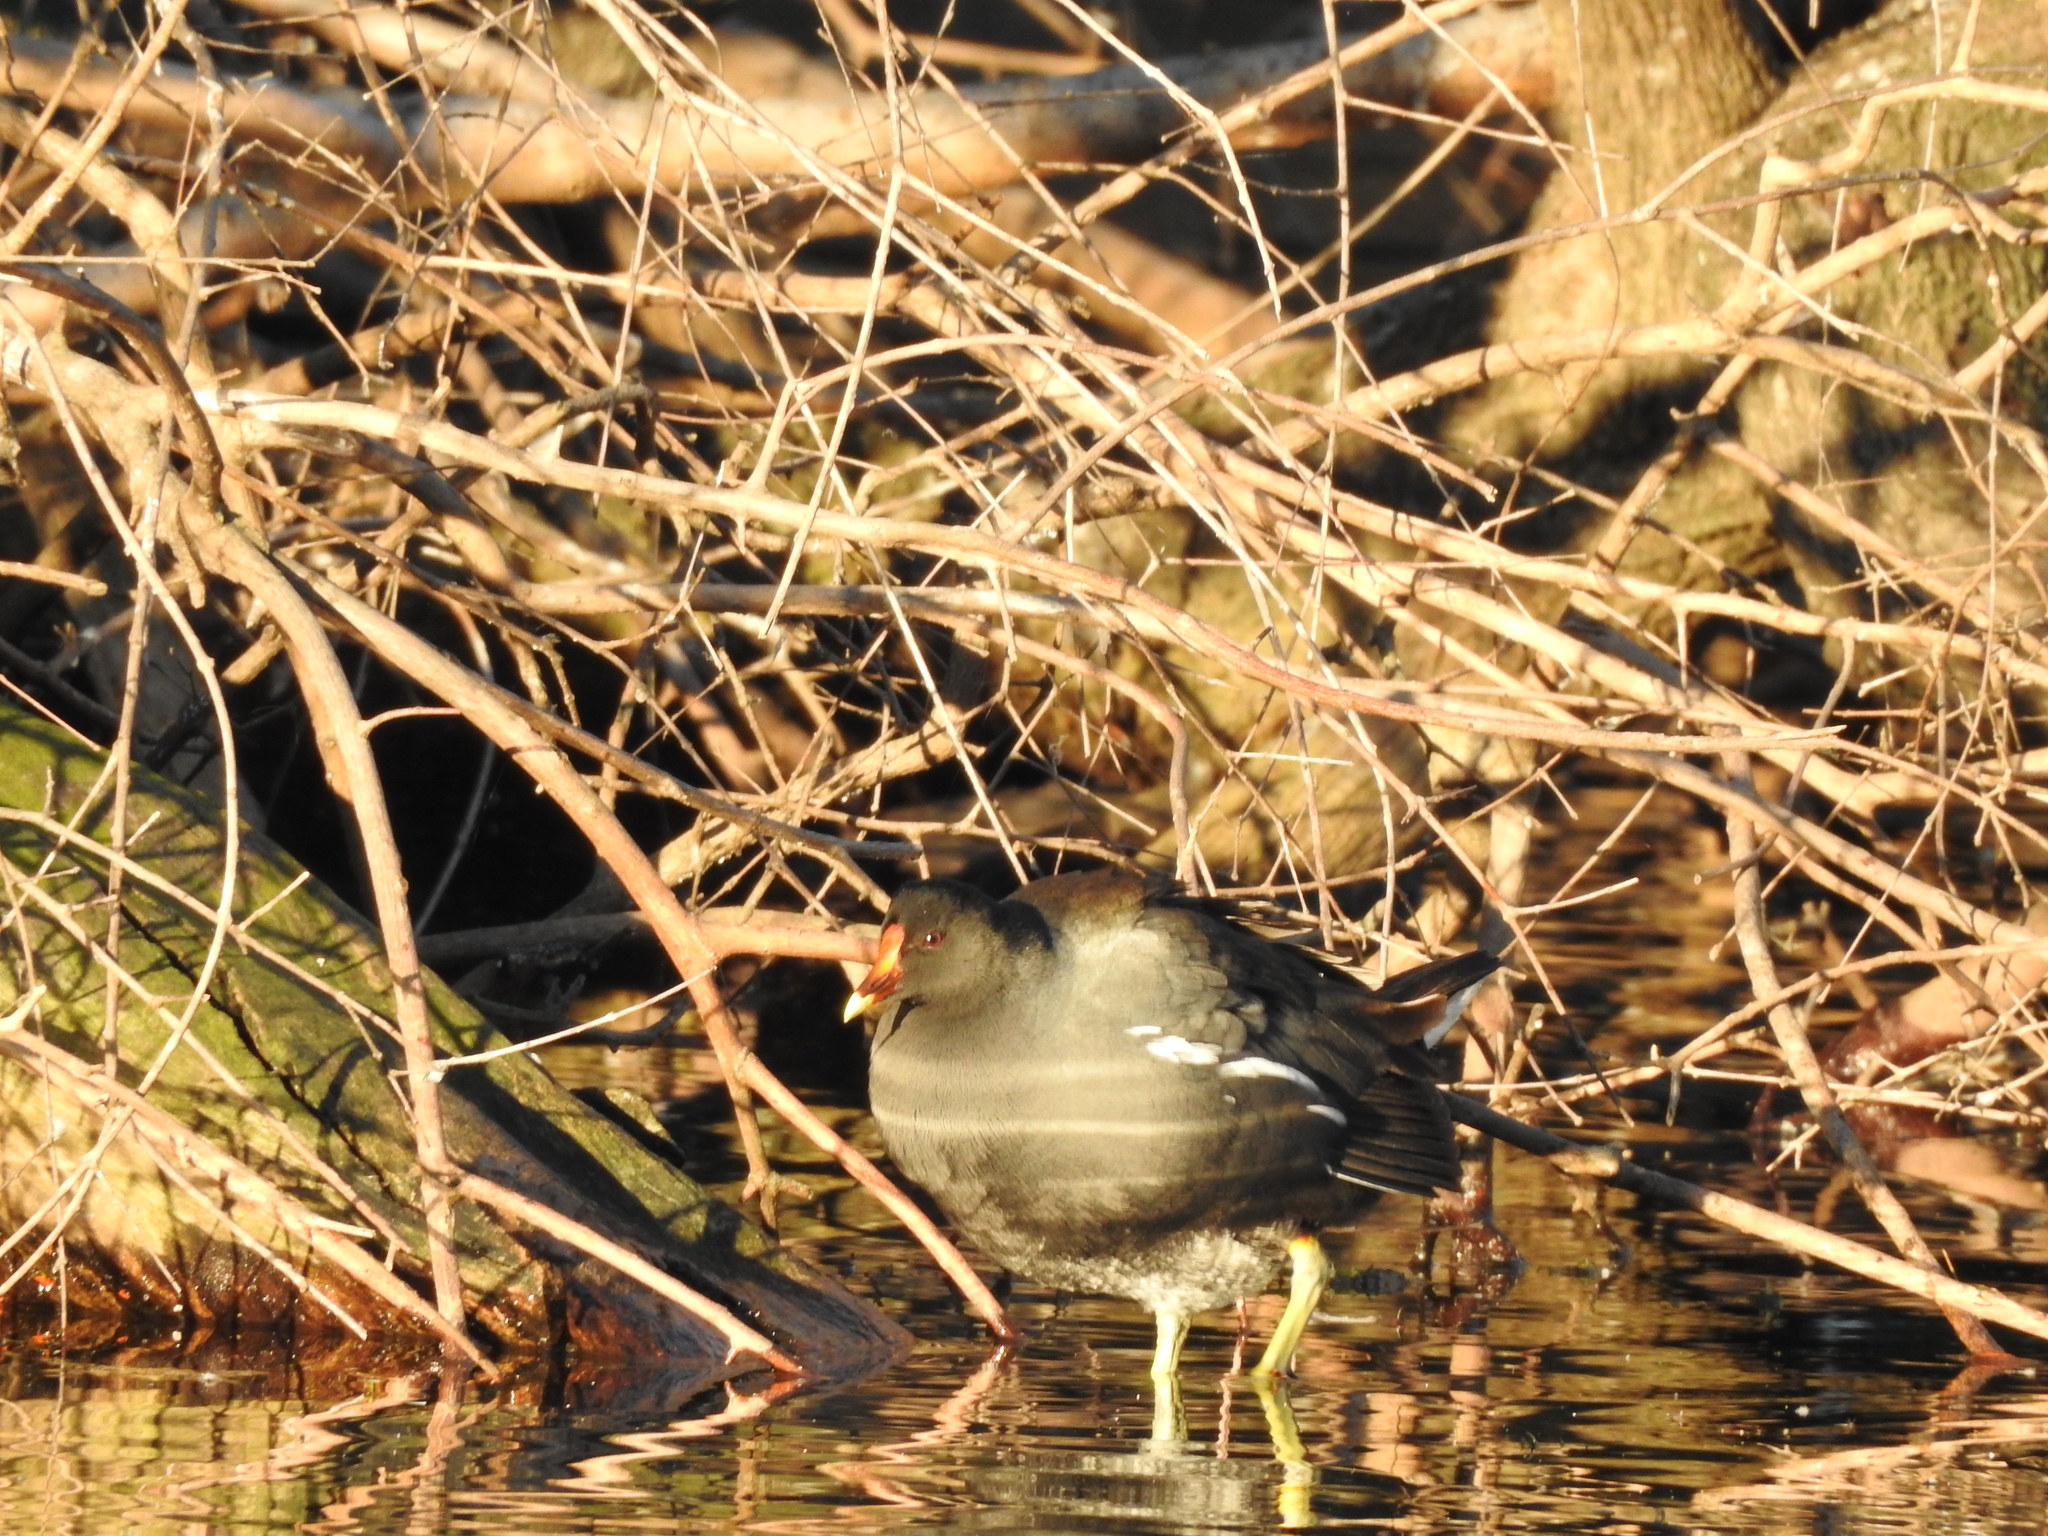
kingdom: Animalia
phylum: Chordata
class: Aves
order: Gruiformes
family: Rallidae
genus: Gallinula
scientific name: Gallinula chloropus
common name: Common moorhen
